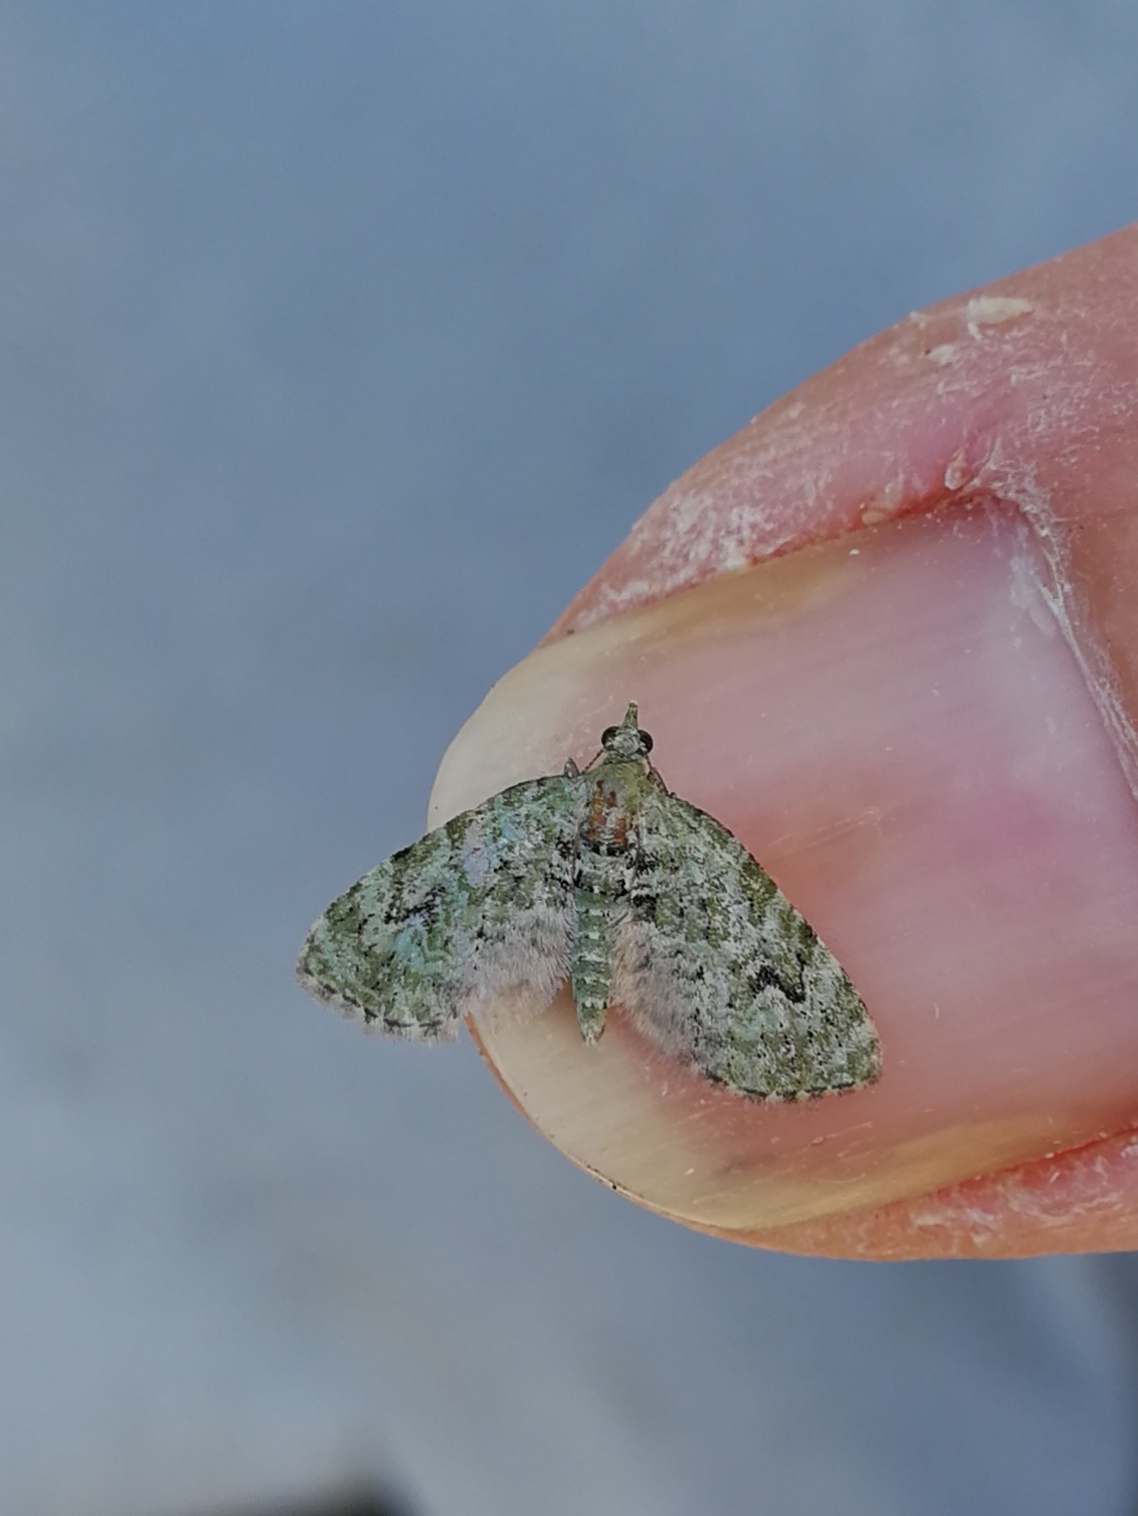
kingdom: Animalia
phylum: Arthropoda
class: Insecta
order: Lepidoptera
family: Geometridae
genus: Chloroclystis
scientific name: Chloroclystis v-ata
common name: V-pug
